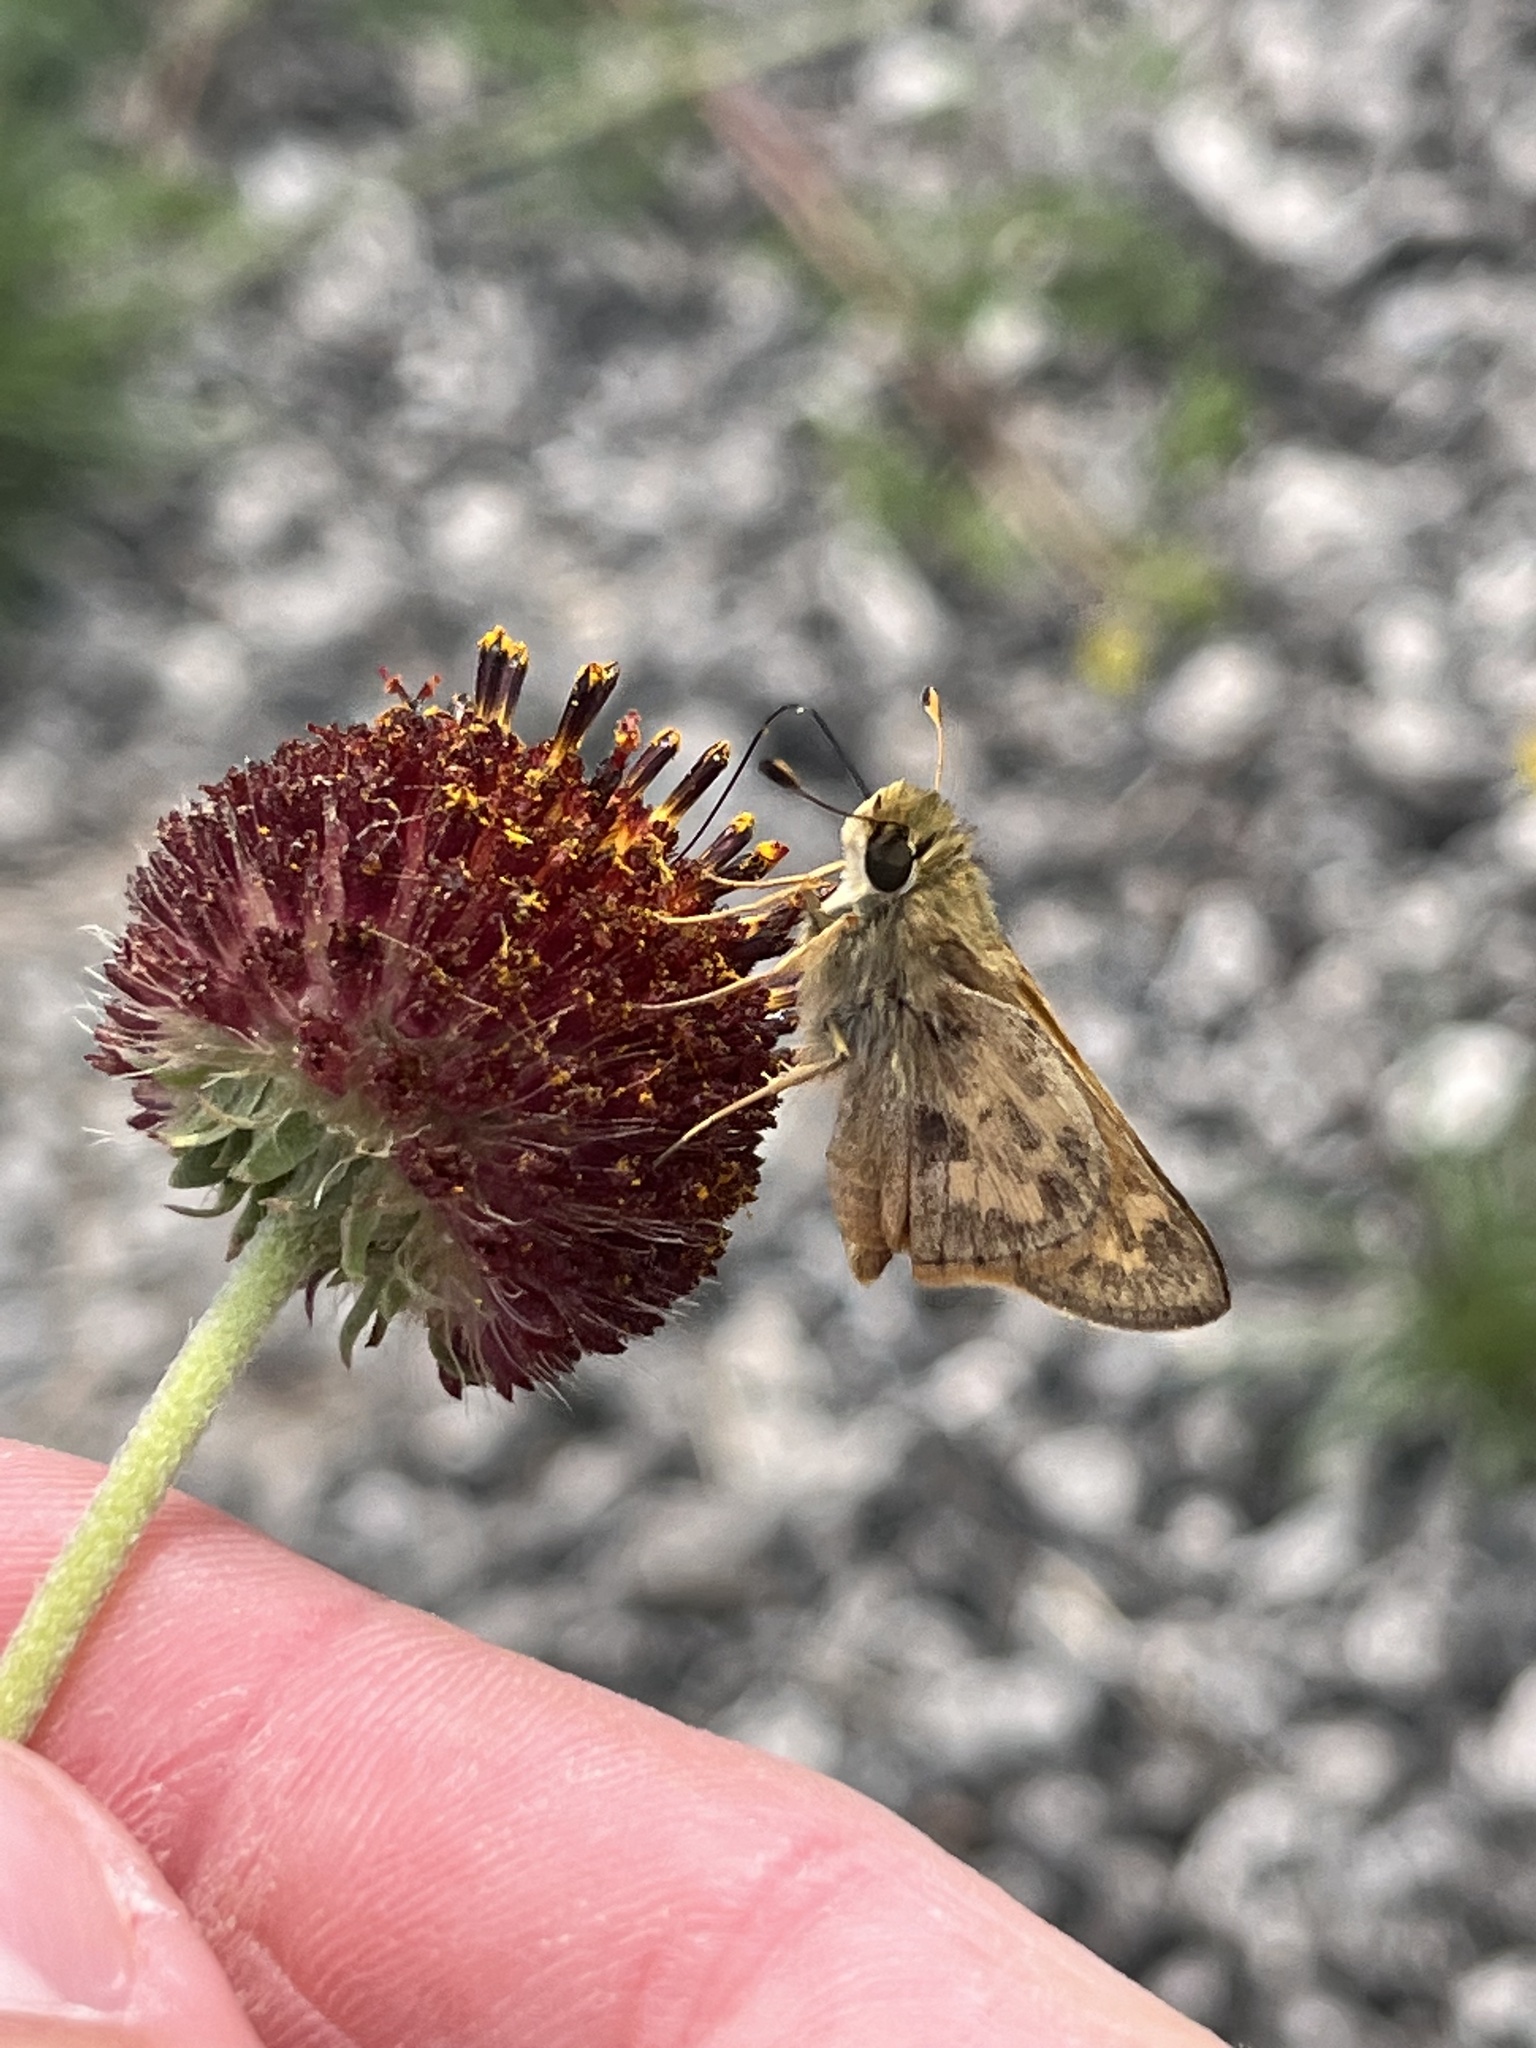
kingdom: Animalia
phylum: Arthropoda
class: Insecta
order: Lepidoptera
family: Hesperiidae
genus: Atalopedes
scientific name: Atalopedes
